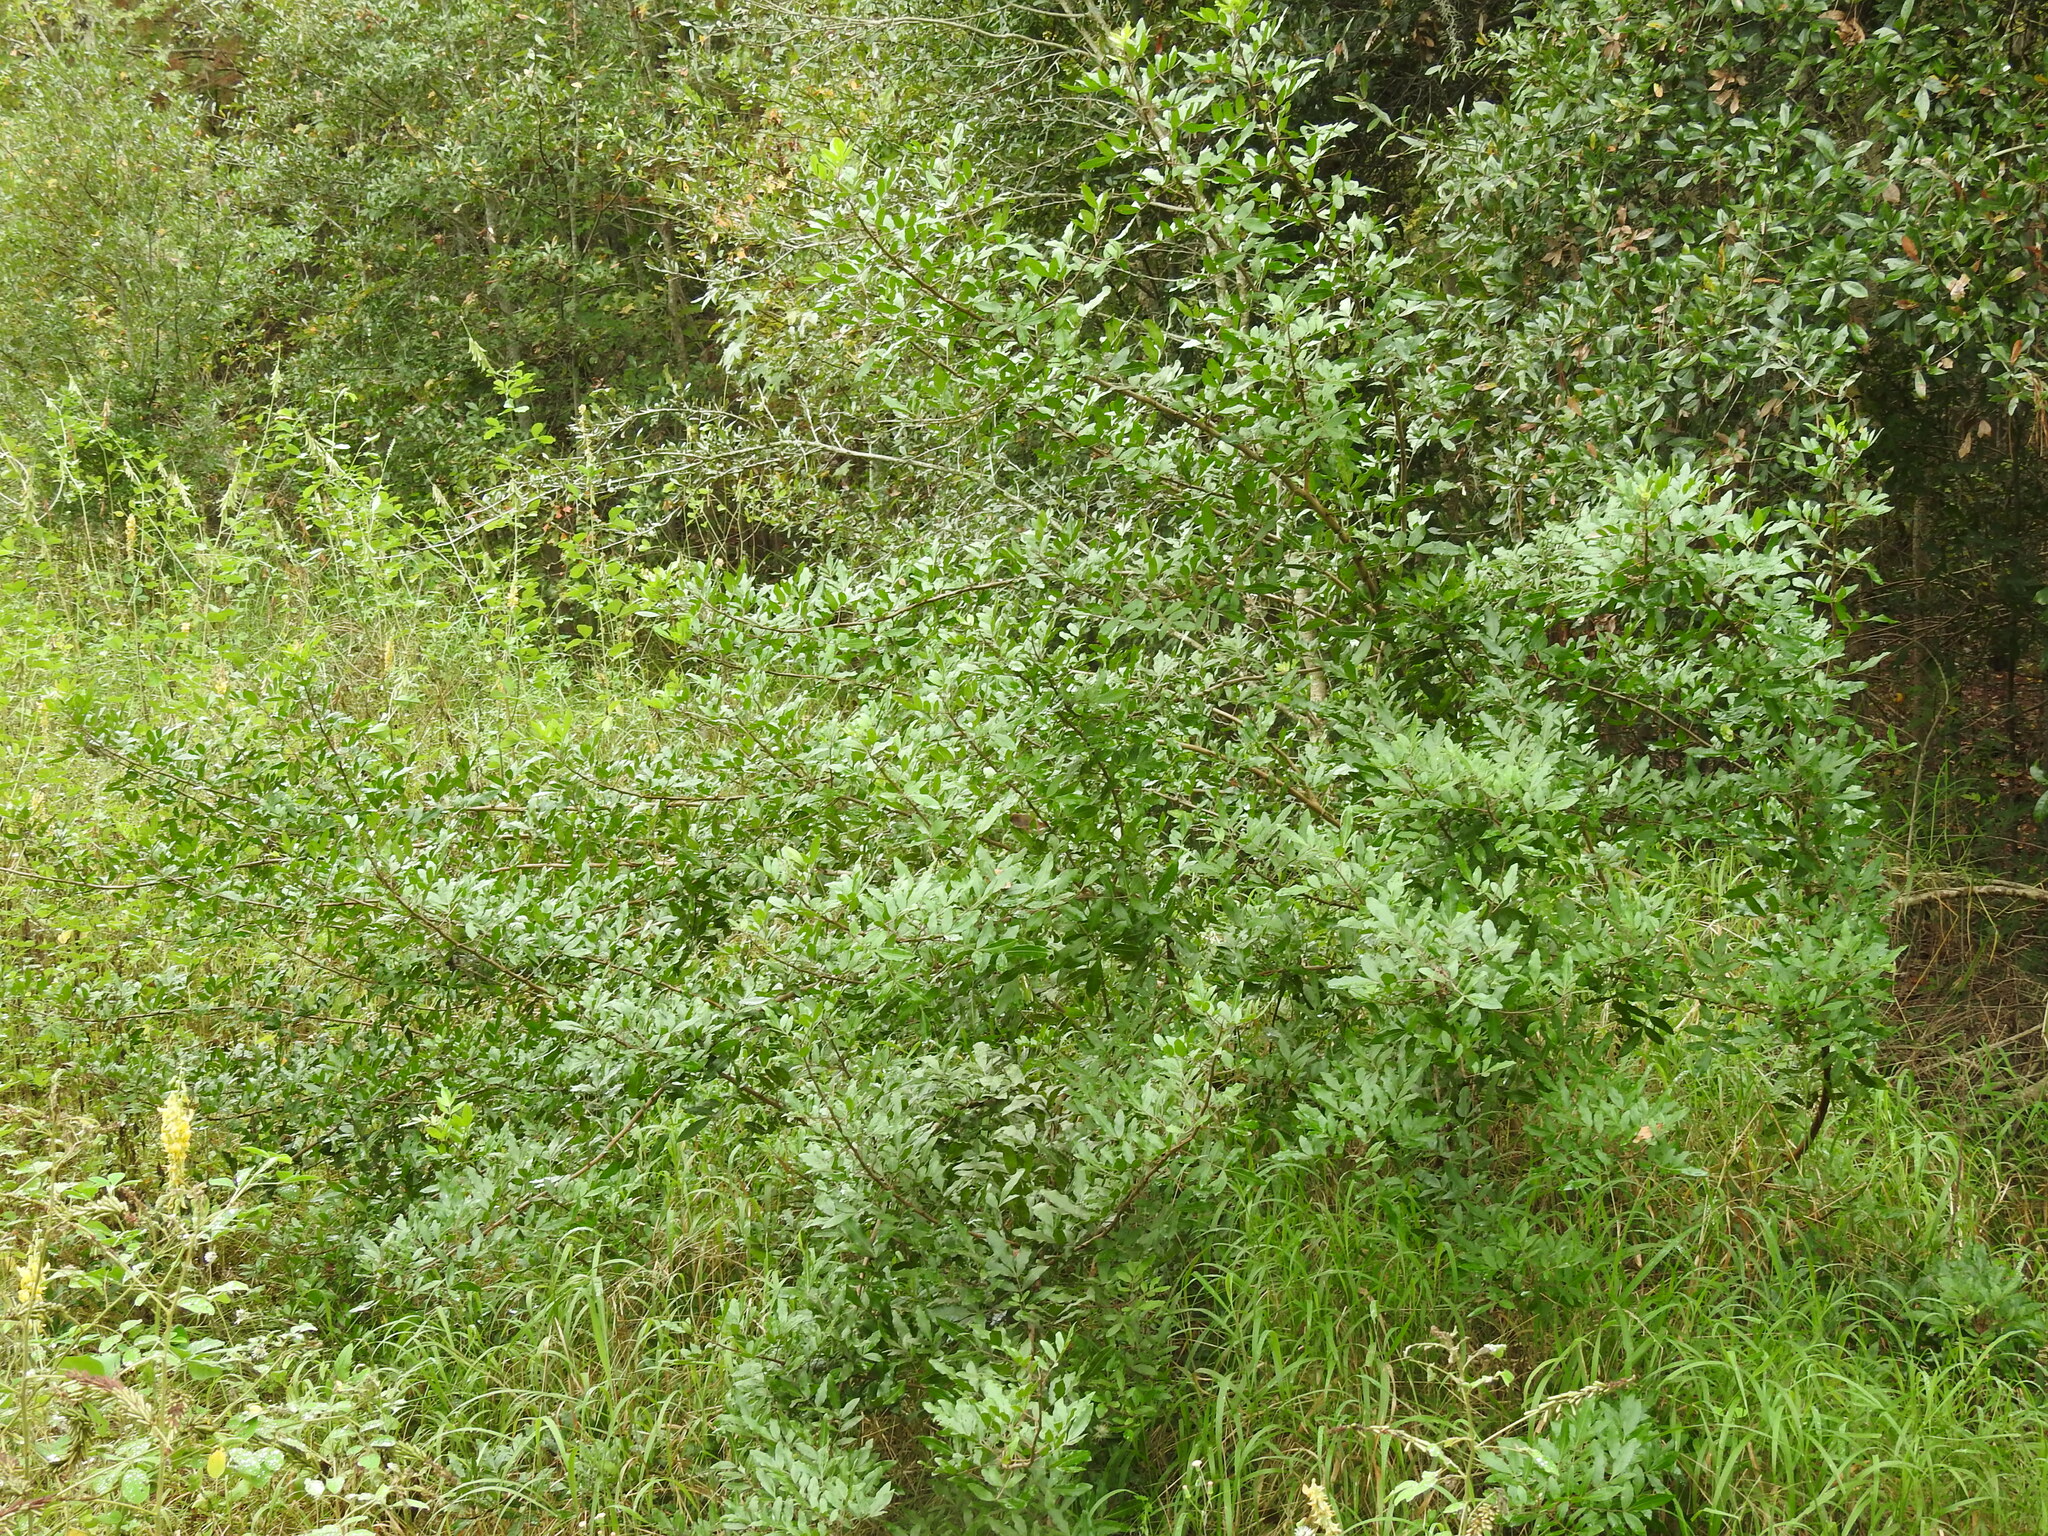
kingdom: Plantae
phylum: Tracheophyta
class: Magnoliopsida
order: Sapindales
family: Anacardiaceae
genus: Schinus
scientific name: Schinus terebinthifolia
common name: Brazilian peppertree
